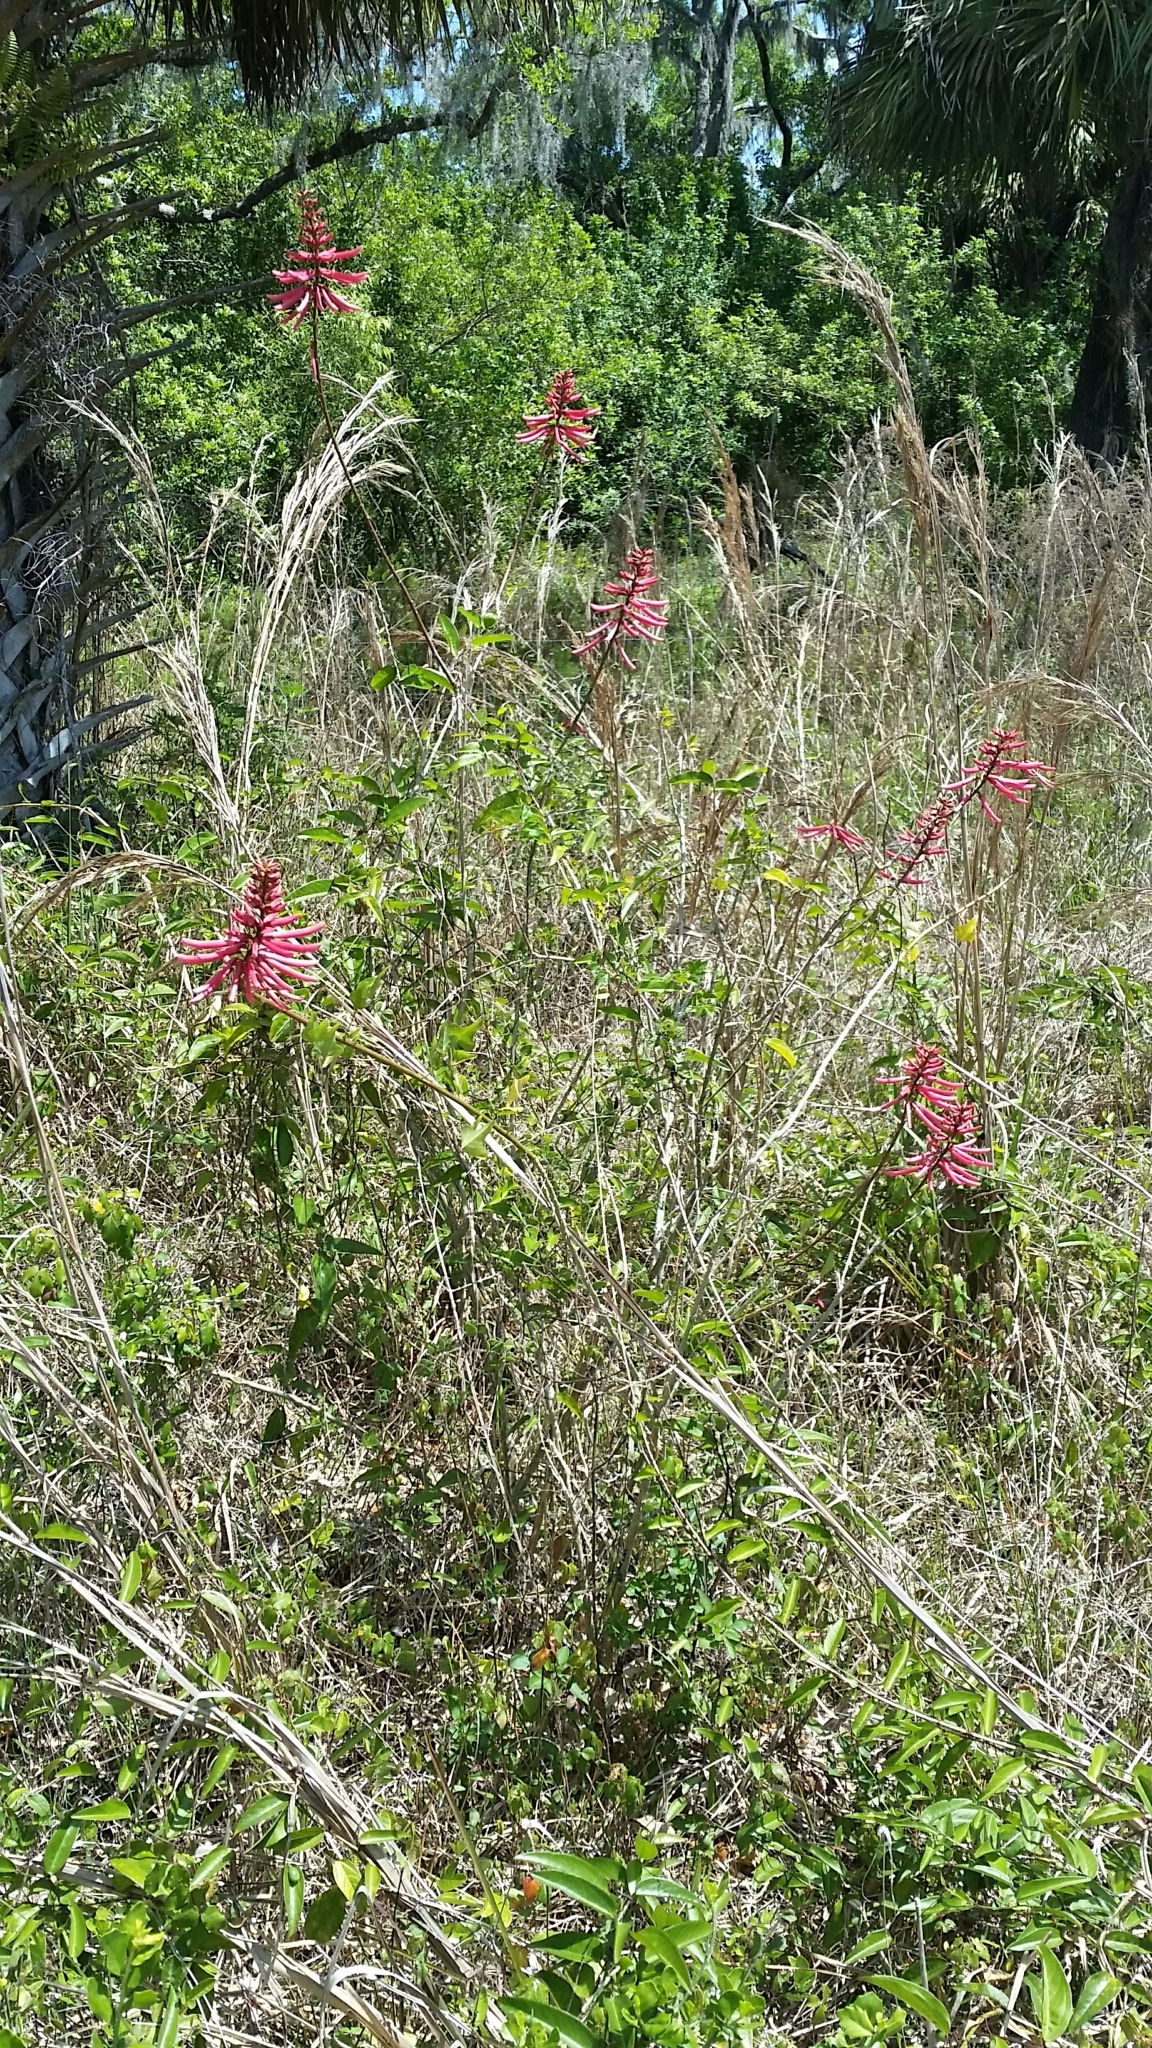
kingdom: Plantae
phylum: Tracheophyta
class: Magnoliopsida
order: Fabales
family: Fabaceae
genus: Erythrina
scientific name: Erythrina herbacea
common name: Coral-bean
